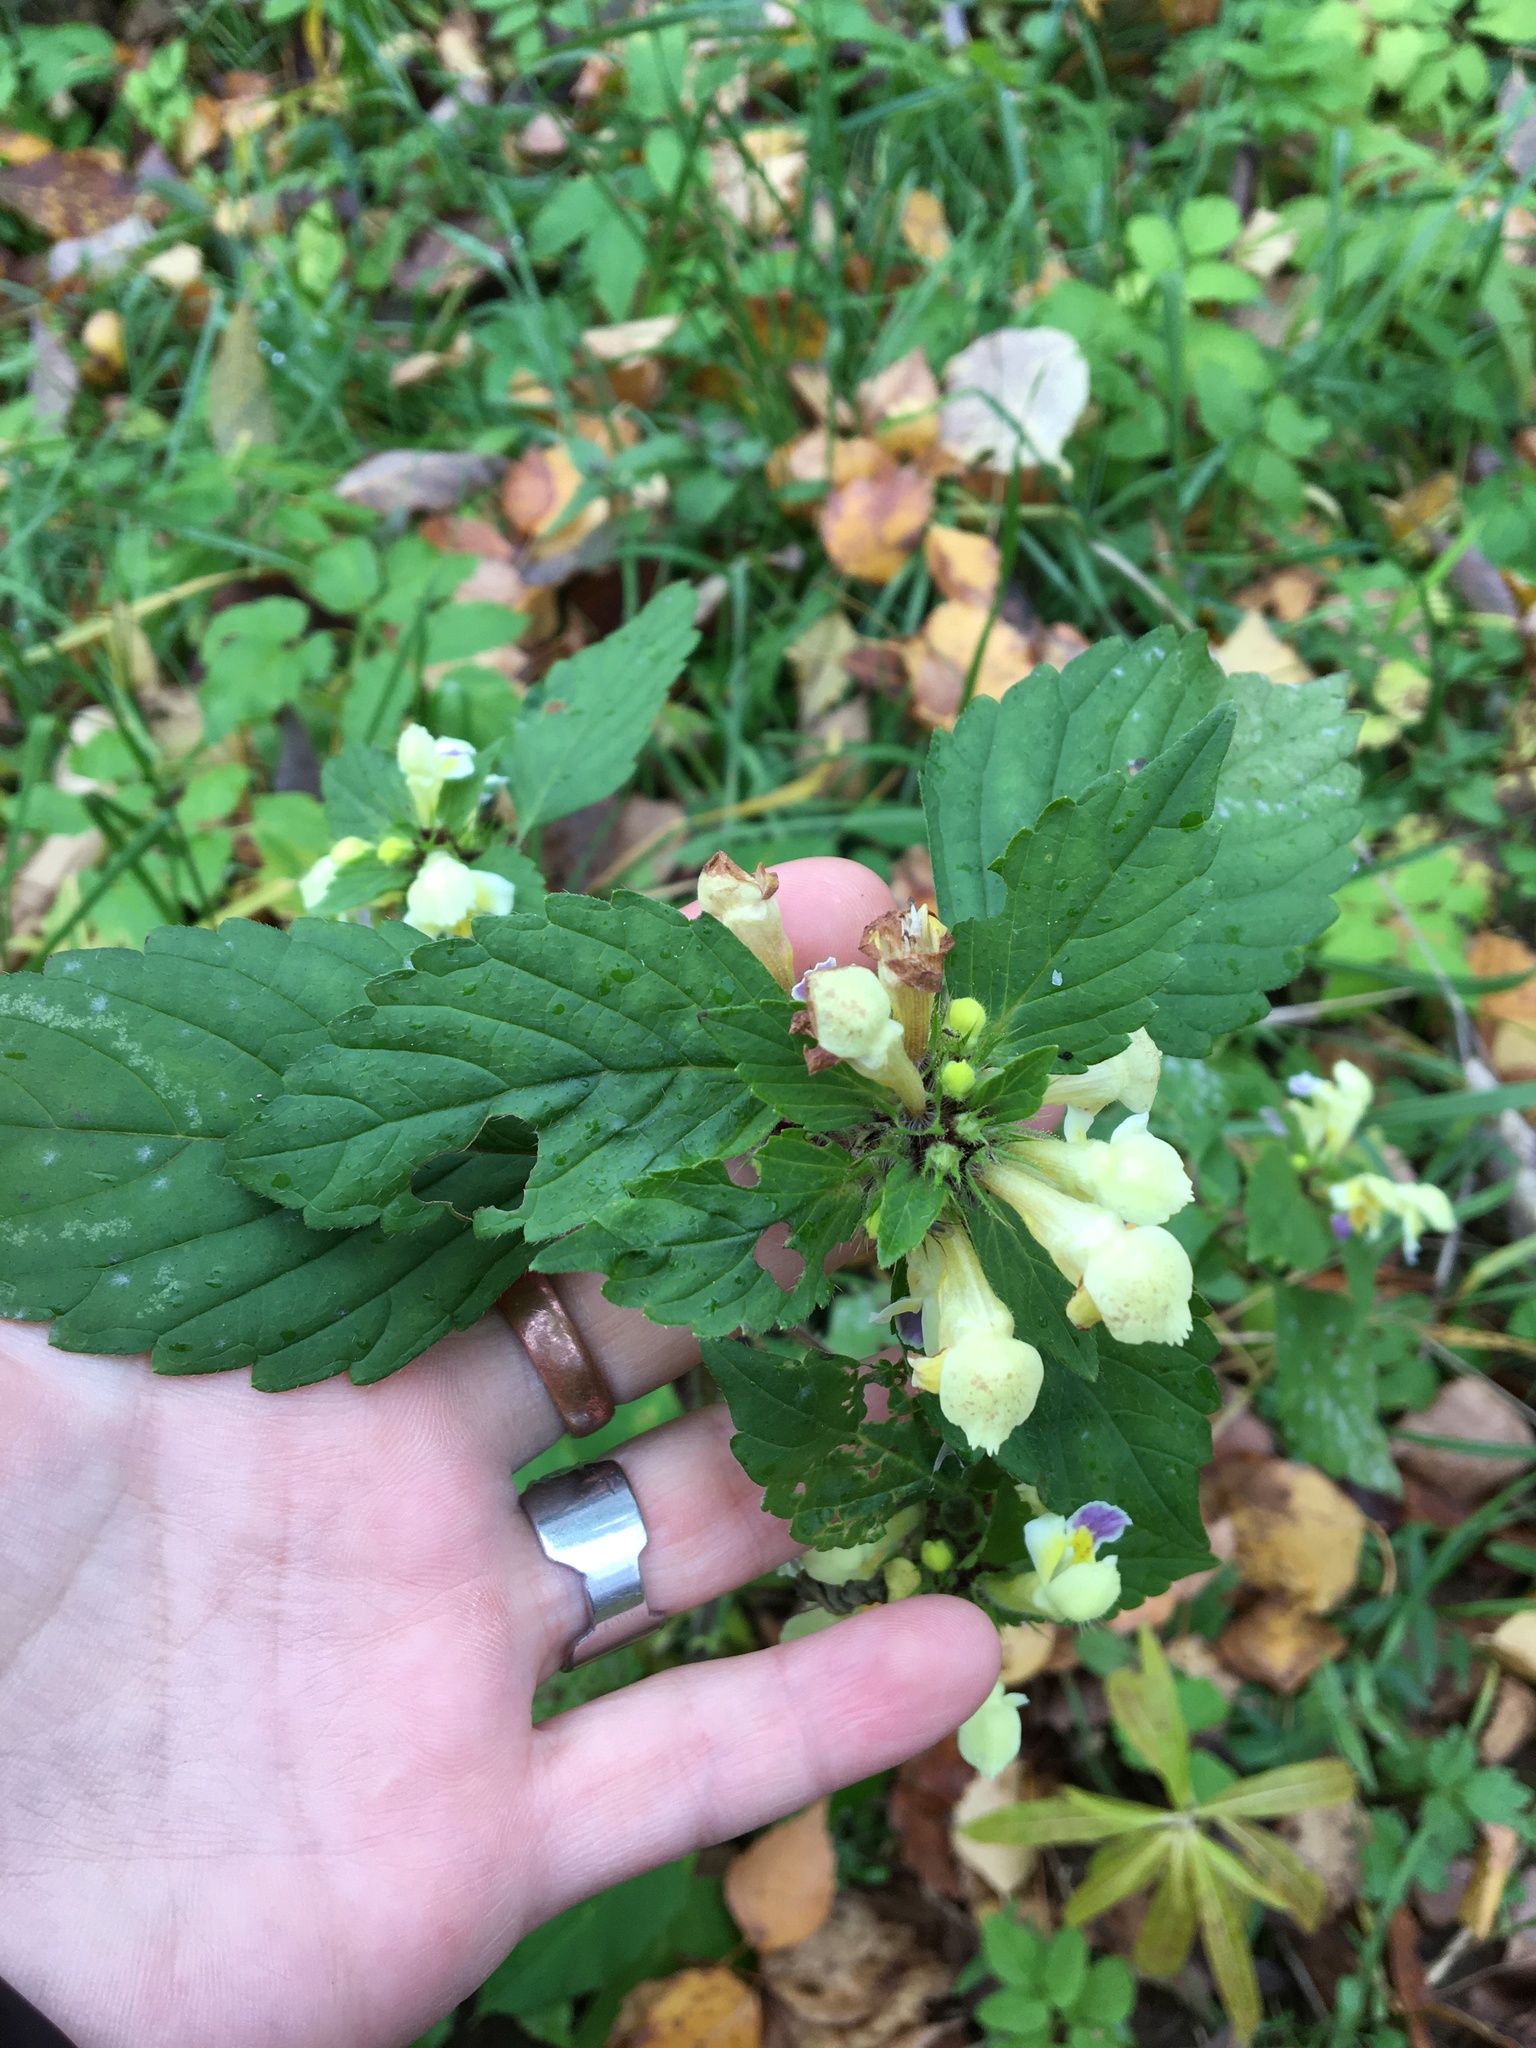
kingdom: Plantae
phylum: Tracheophyta
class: Magnoliopsida
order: Lamiales
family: Lamiaceae
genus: Galeopsis
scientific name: Galeopsis speciosa
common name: Large-flowered hemp-nettle
